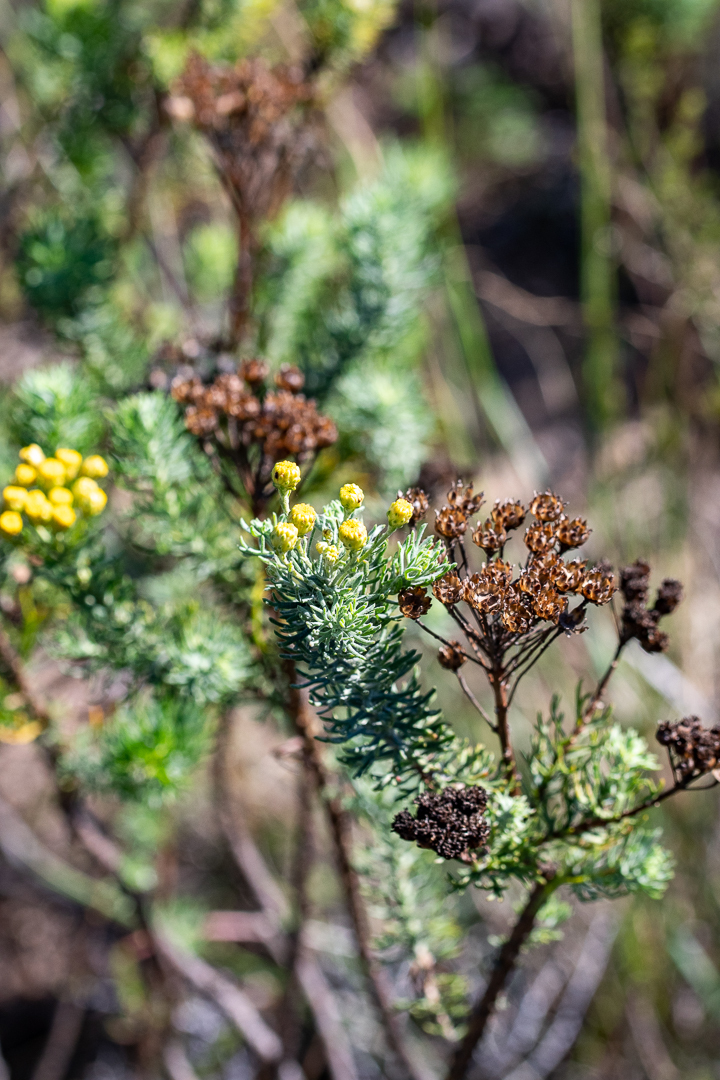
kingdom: Plantae
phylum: Tracheophyta
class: Magnoliopsida
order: Asterales
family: Asteraceae
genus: Athanasia
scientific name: Athanasia crithmifolia
